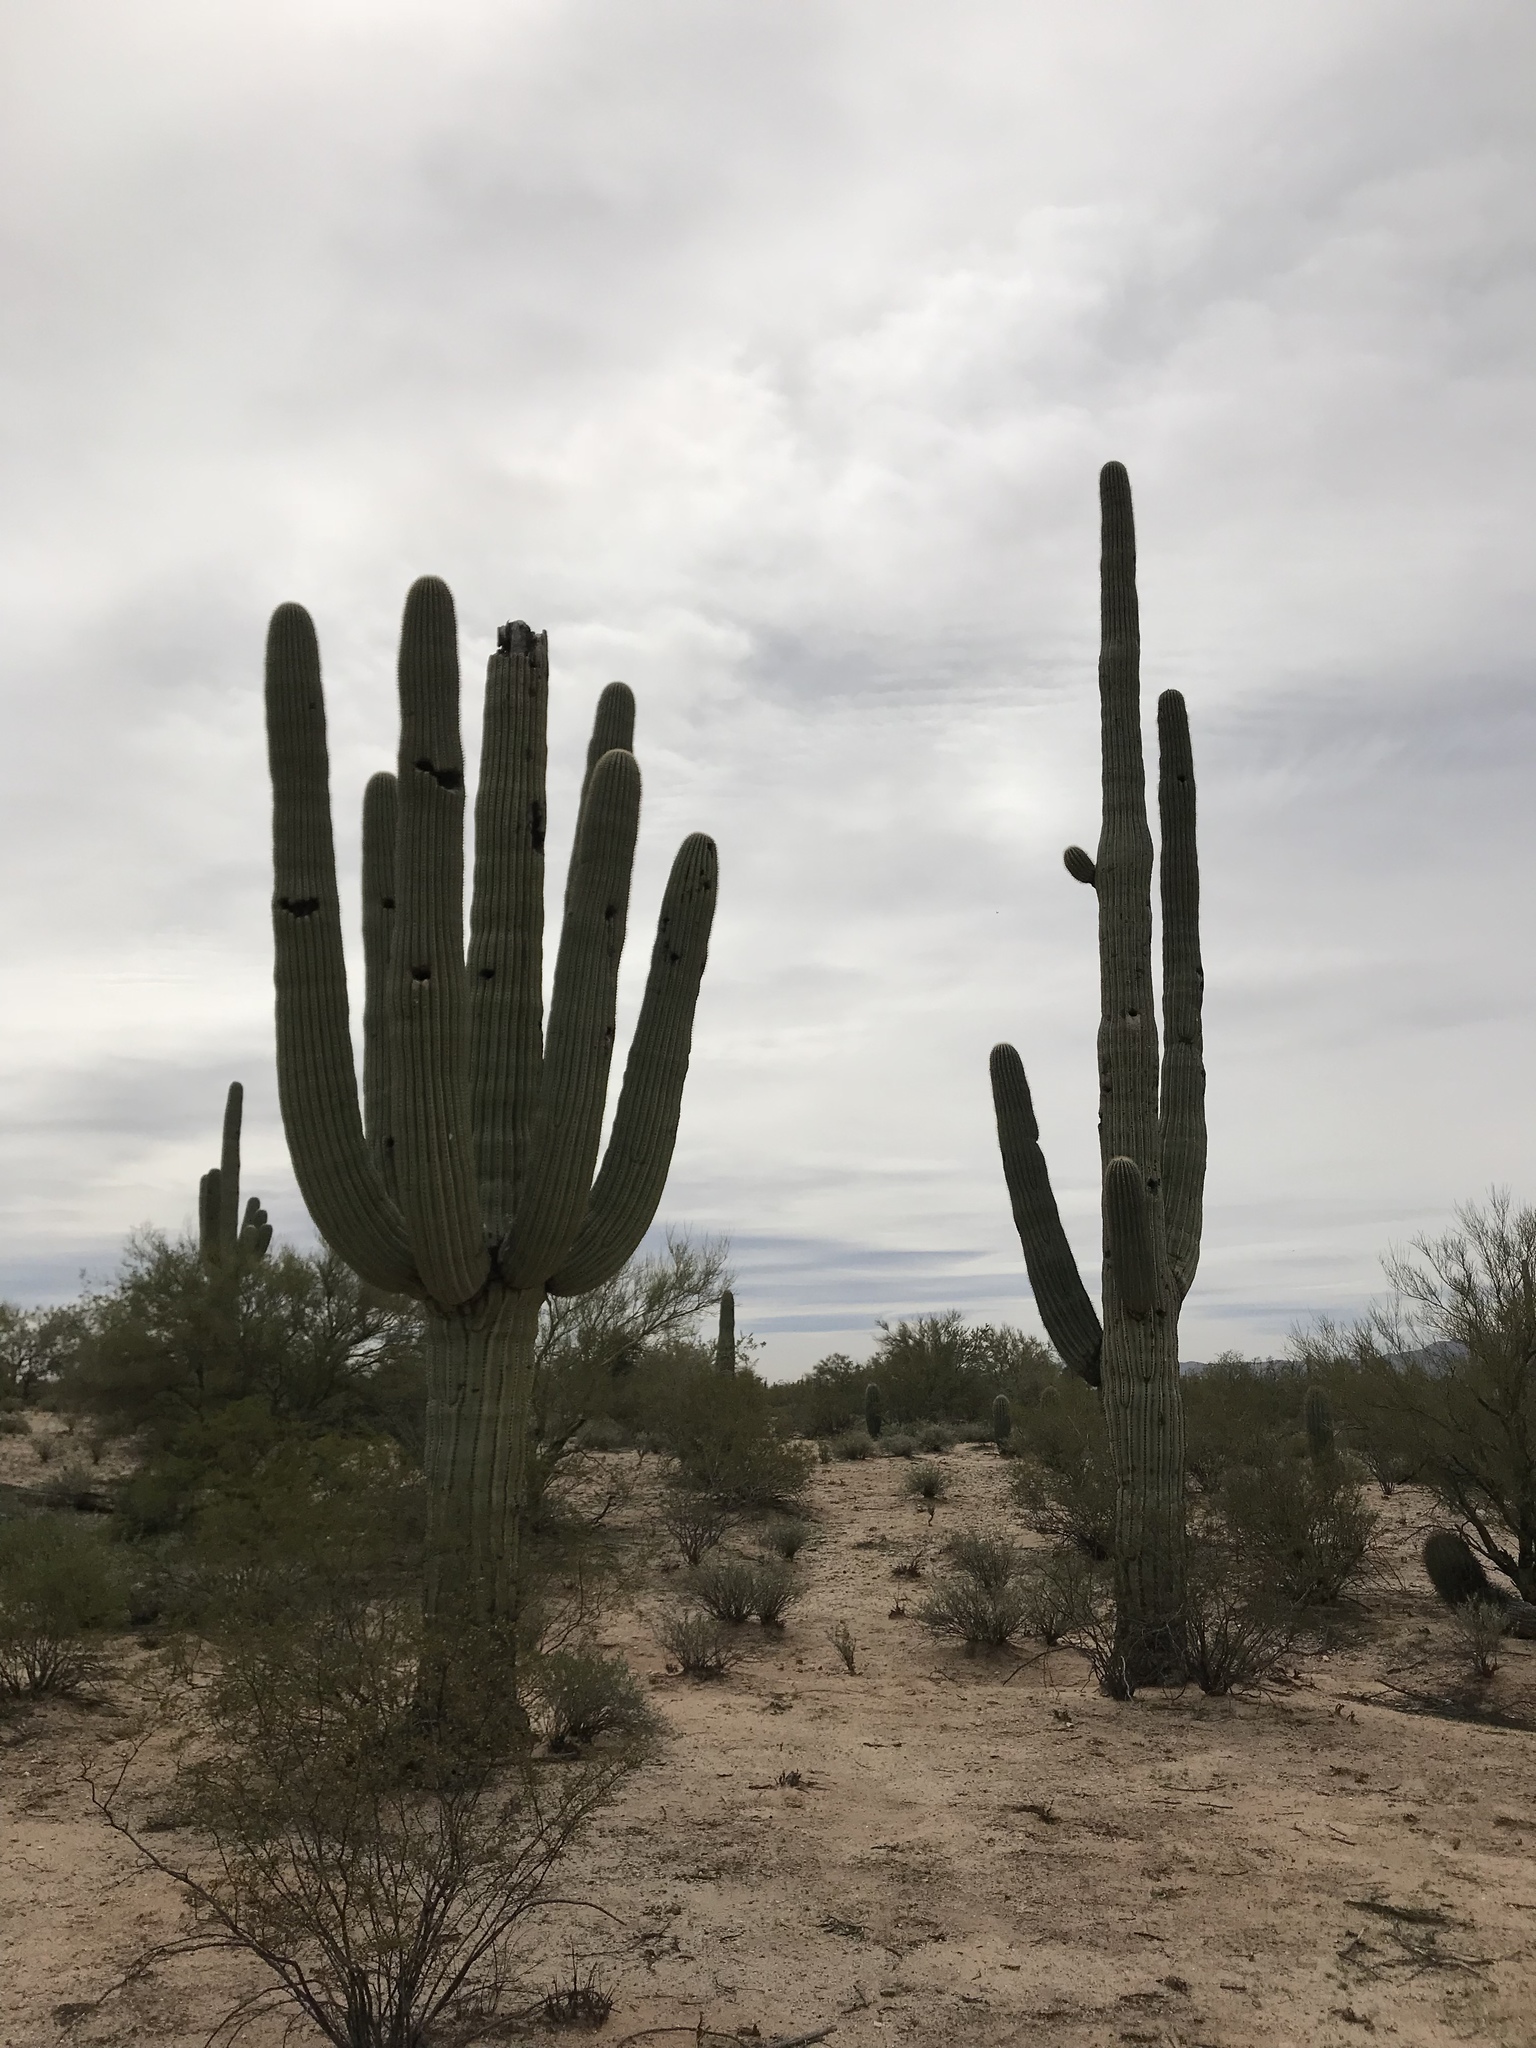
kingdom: Plantae
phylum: Tracheophyta
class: Magnoliopsida
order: Caryophyllales
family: Cactaceae
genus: Carnegiea
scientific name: Carnegiea gigantea
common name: Saguaro
